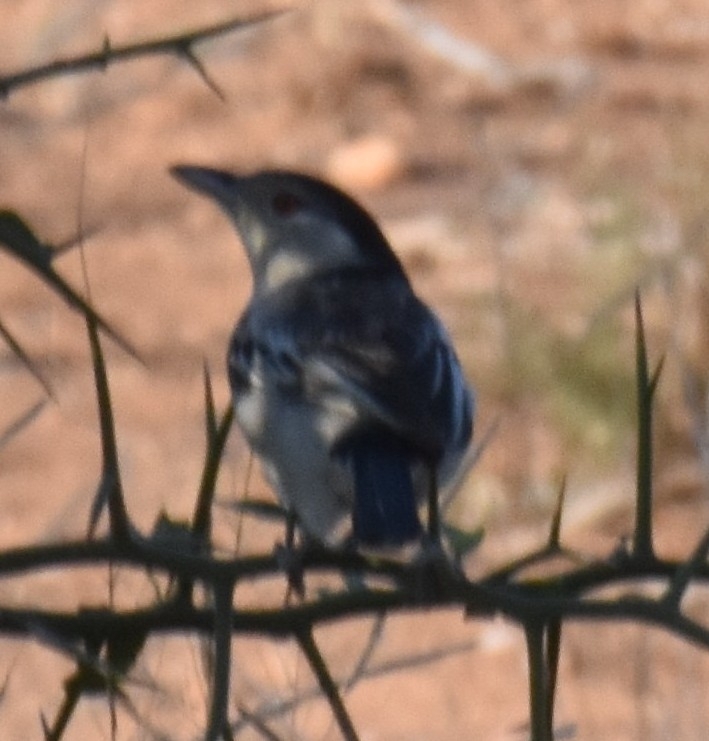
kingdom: Animalia
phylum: Chordata
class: Aves
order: Passeriformes
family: Malaconotidae
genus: Dryoscopus
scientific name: Dryoscopus cubla
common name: Black-backed puffback
